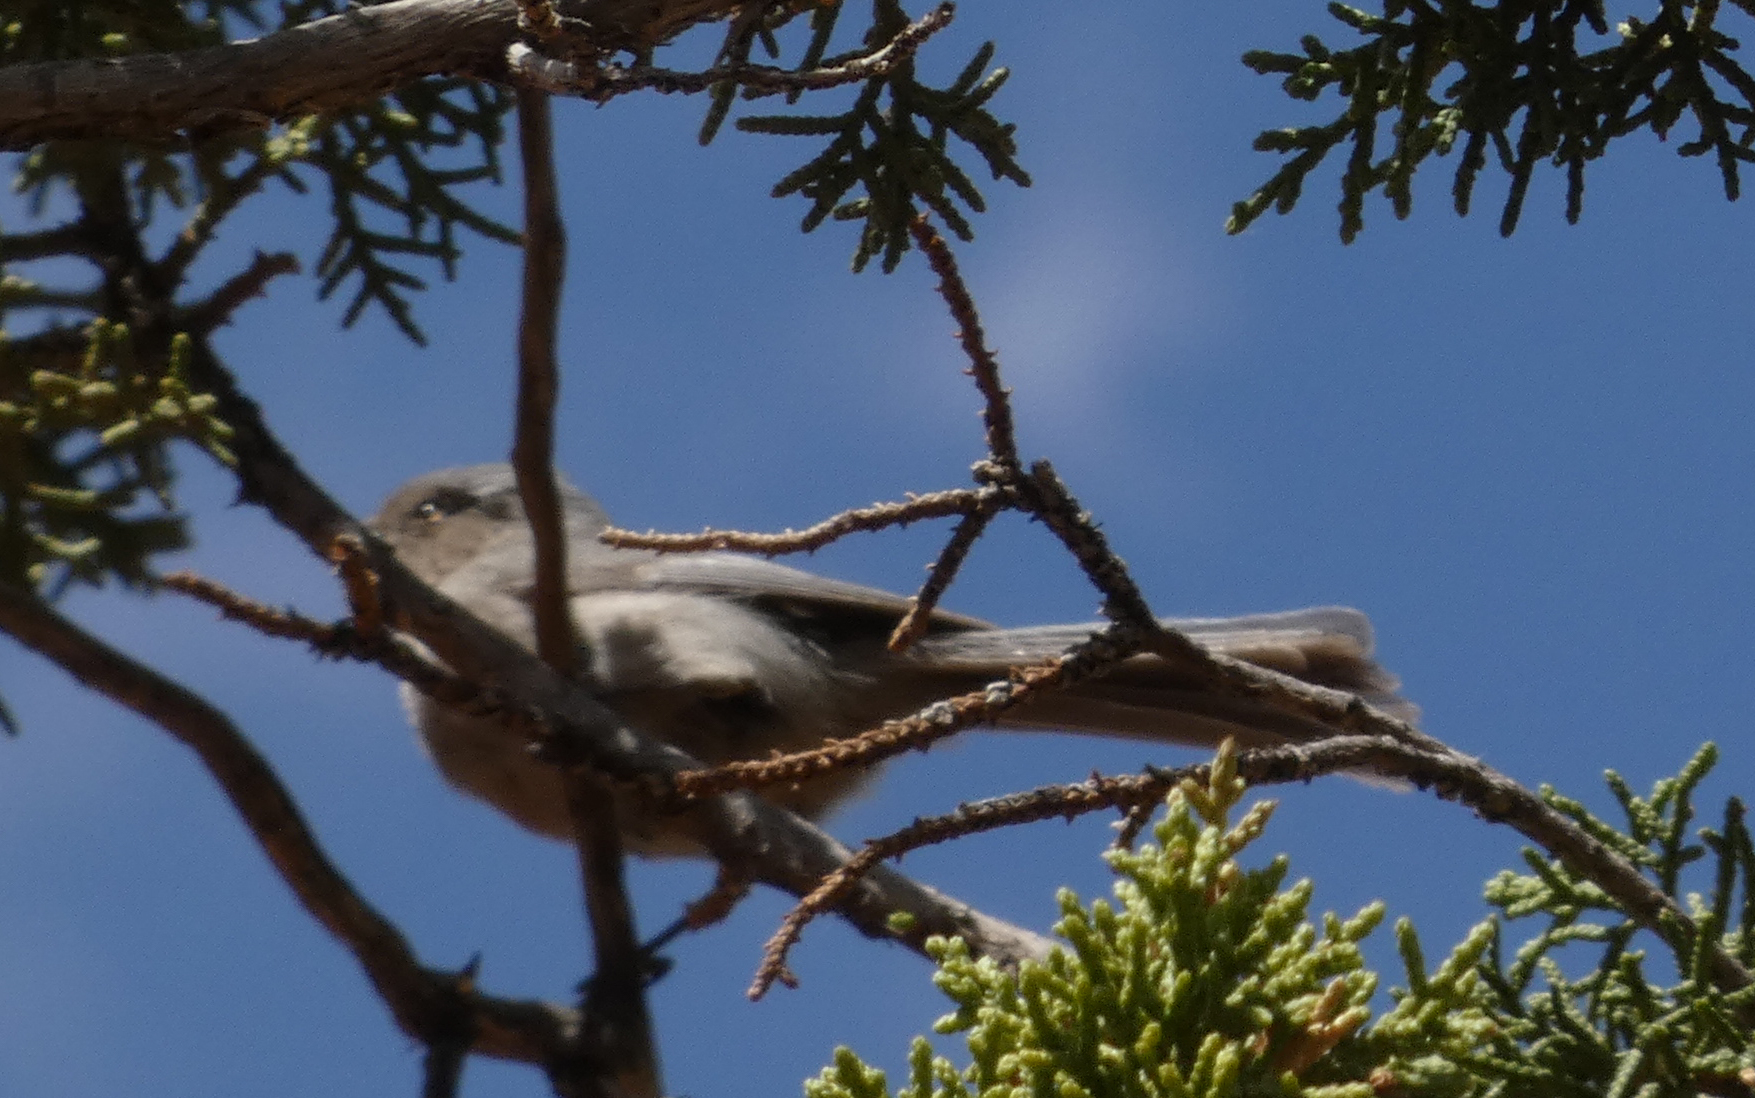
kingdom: Animalia
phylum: Chordata
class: Aves
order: Passeriformes
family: Aegithalidae
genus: Psaltriparus
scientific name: Psaltriparus minimus
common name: American bushtit
